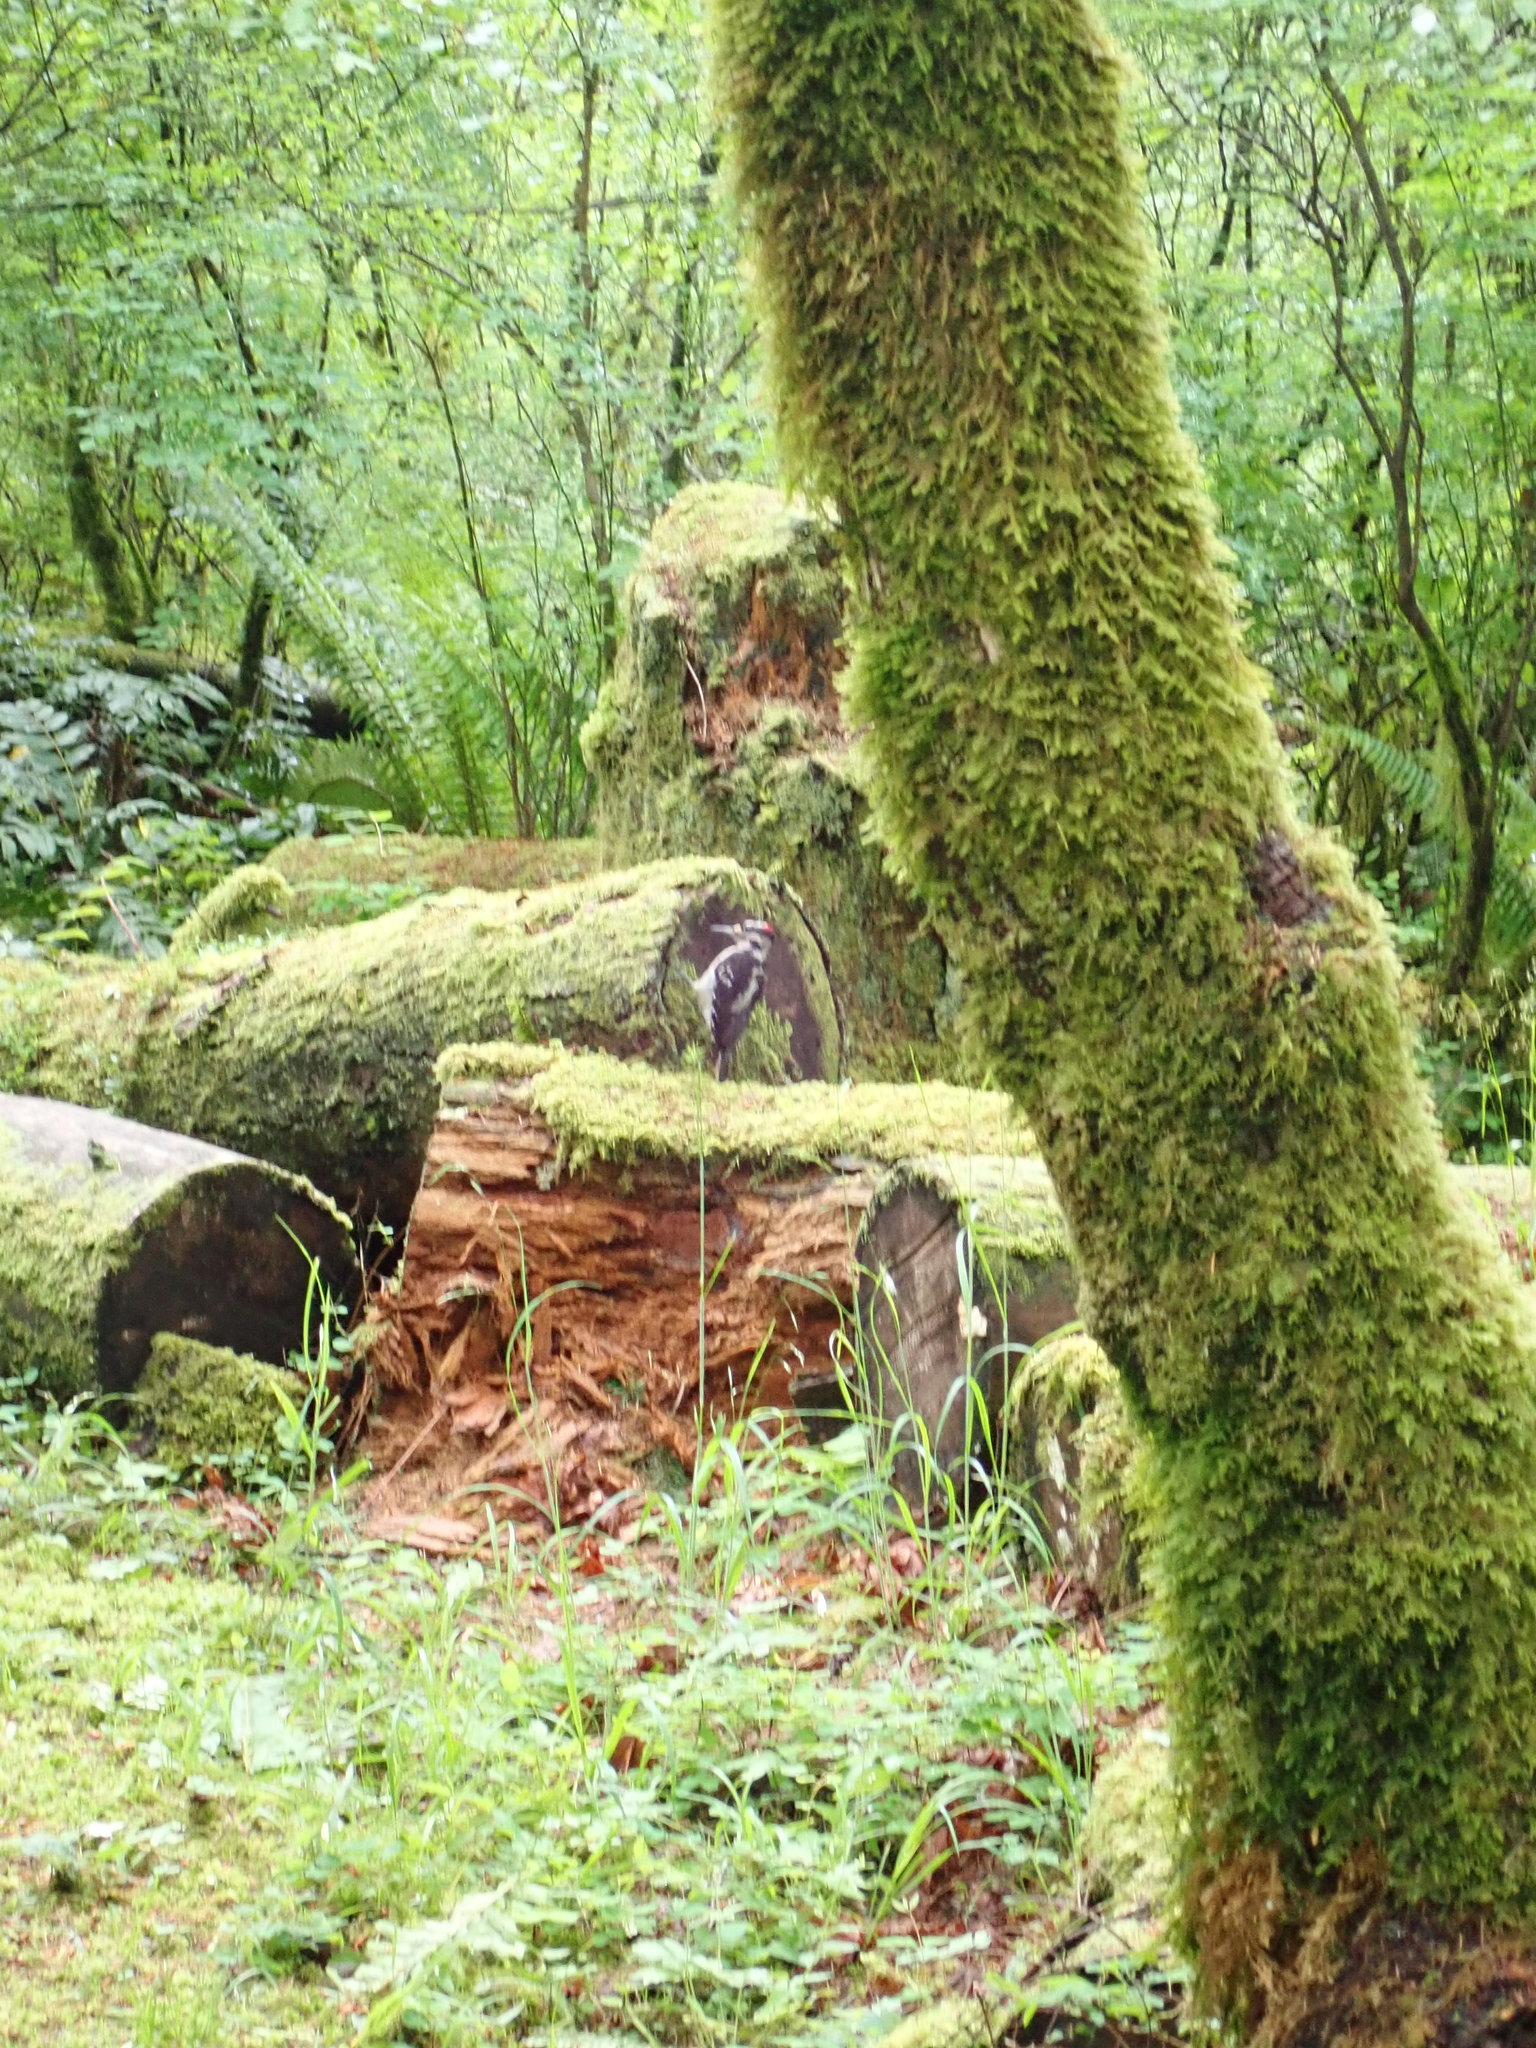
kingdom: Animalia
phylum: Chordata
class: Aves
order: Piciformes
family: Picidae
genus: Leuconotopicus
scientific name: Leuconotopicus villosus
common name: Hairy woodpecker
